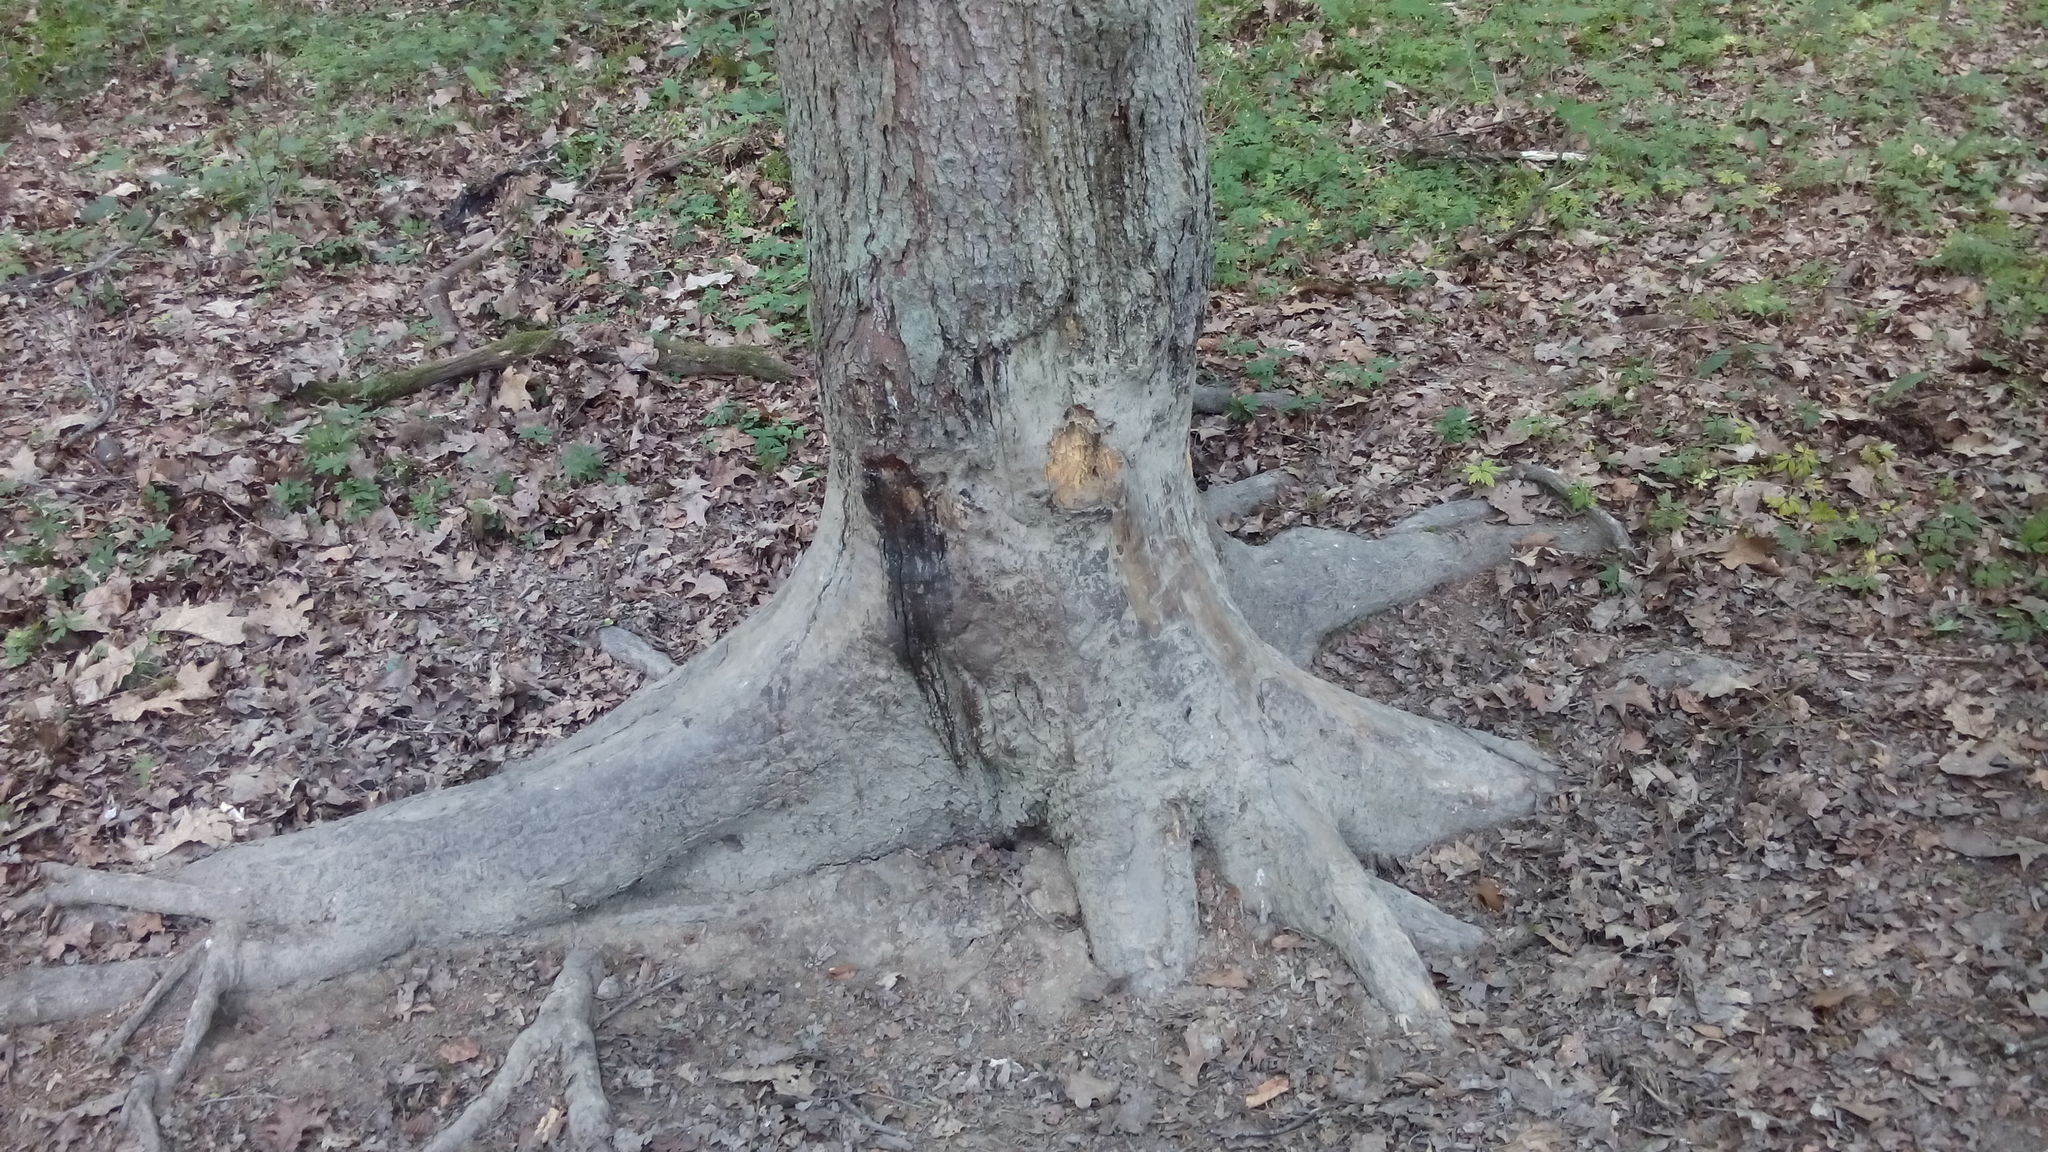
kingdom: Animalia
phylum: Chordata
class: Mammalia
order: Artiodactyla
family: Suidae
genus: Sus
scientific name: Sus scrofa
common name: Wild boar
